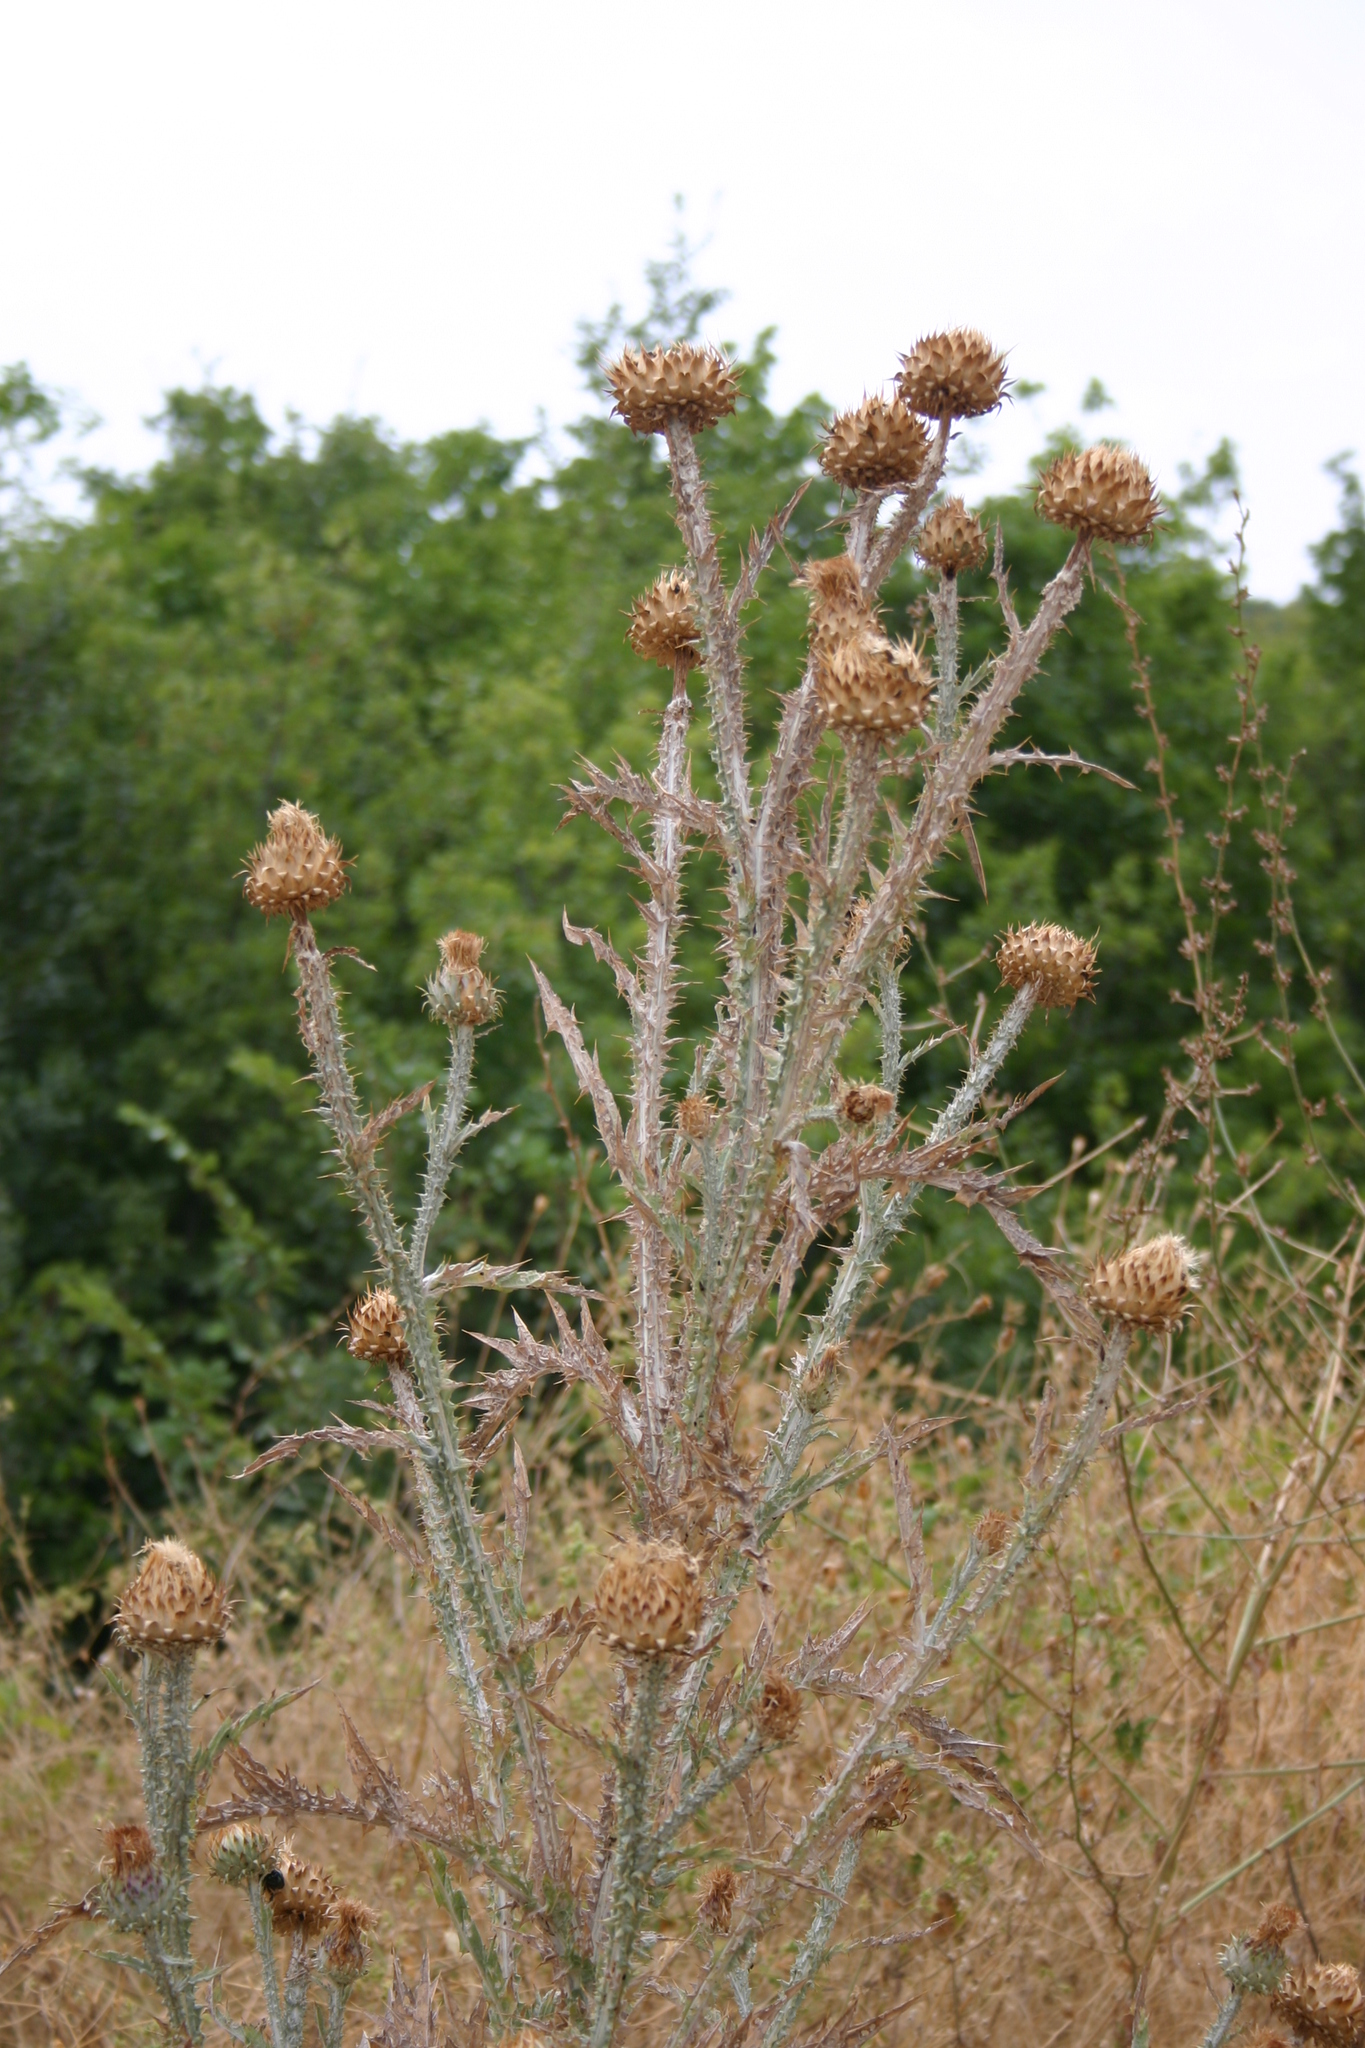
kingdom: Plantae
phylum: Tracheophyta
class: Magnoliopsida
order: Asterales
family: Asteraceae
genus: Onopordum
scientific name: Onopordum illyricum
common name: Illyrian thistle
